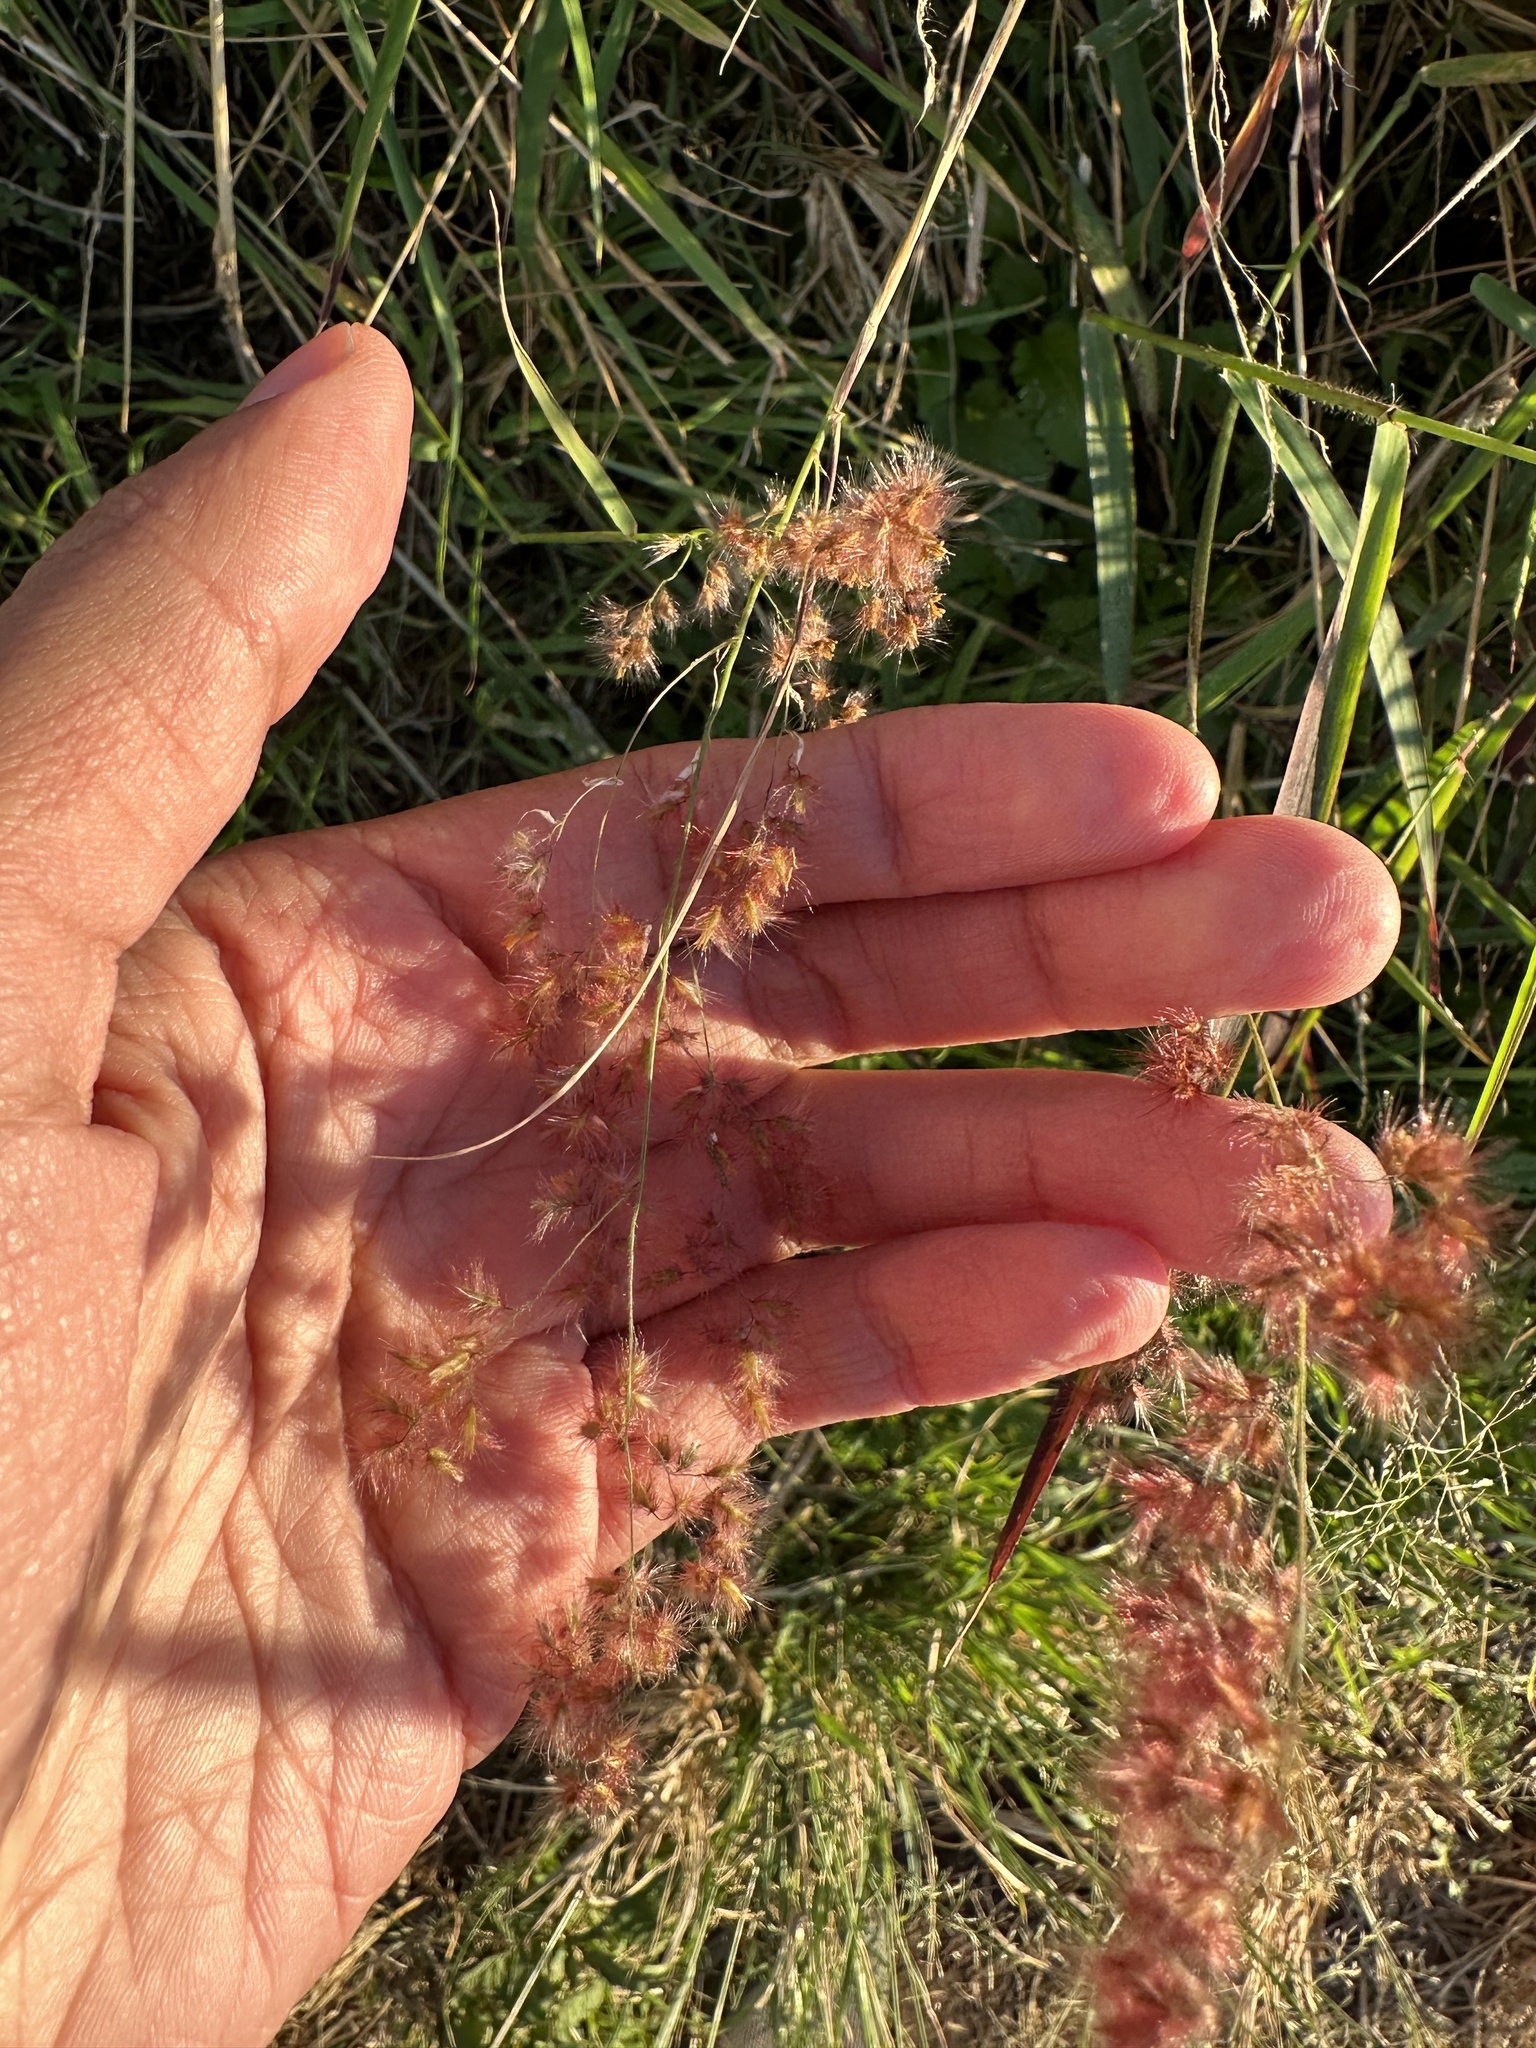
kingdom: Plantae
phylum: Tracheophyta
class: Liliopsida
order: Poales
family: Poaceae
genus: Melinis
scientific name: Melinis repens
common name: Rose natal grass
